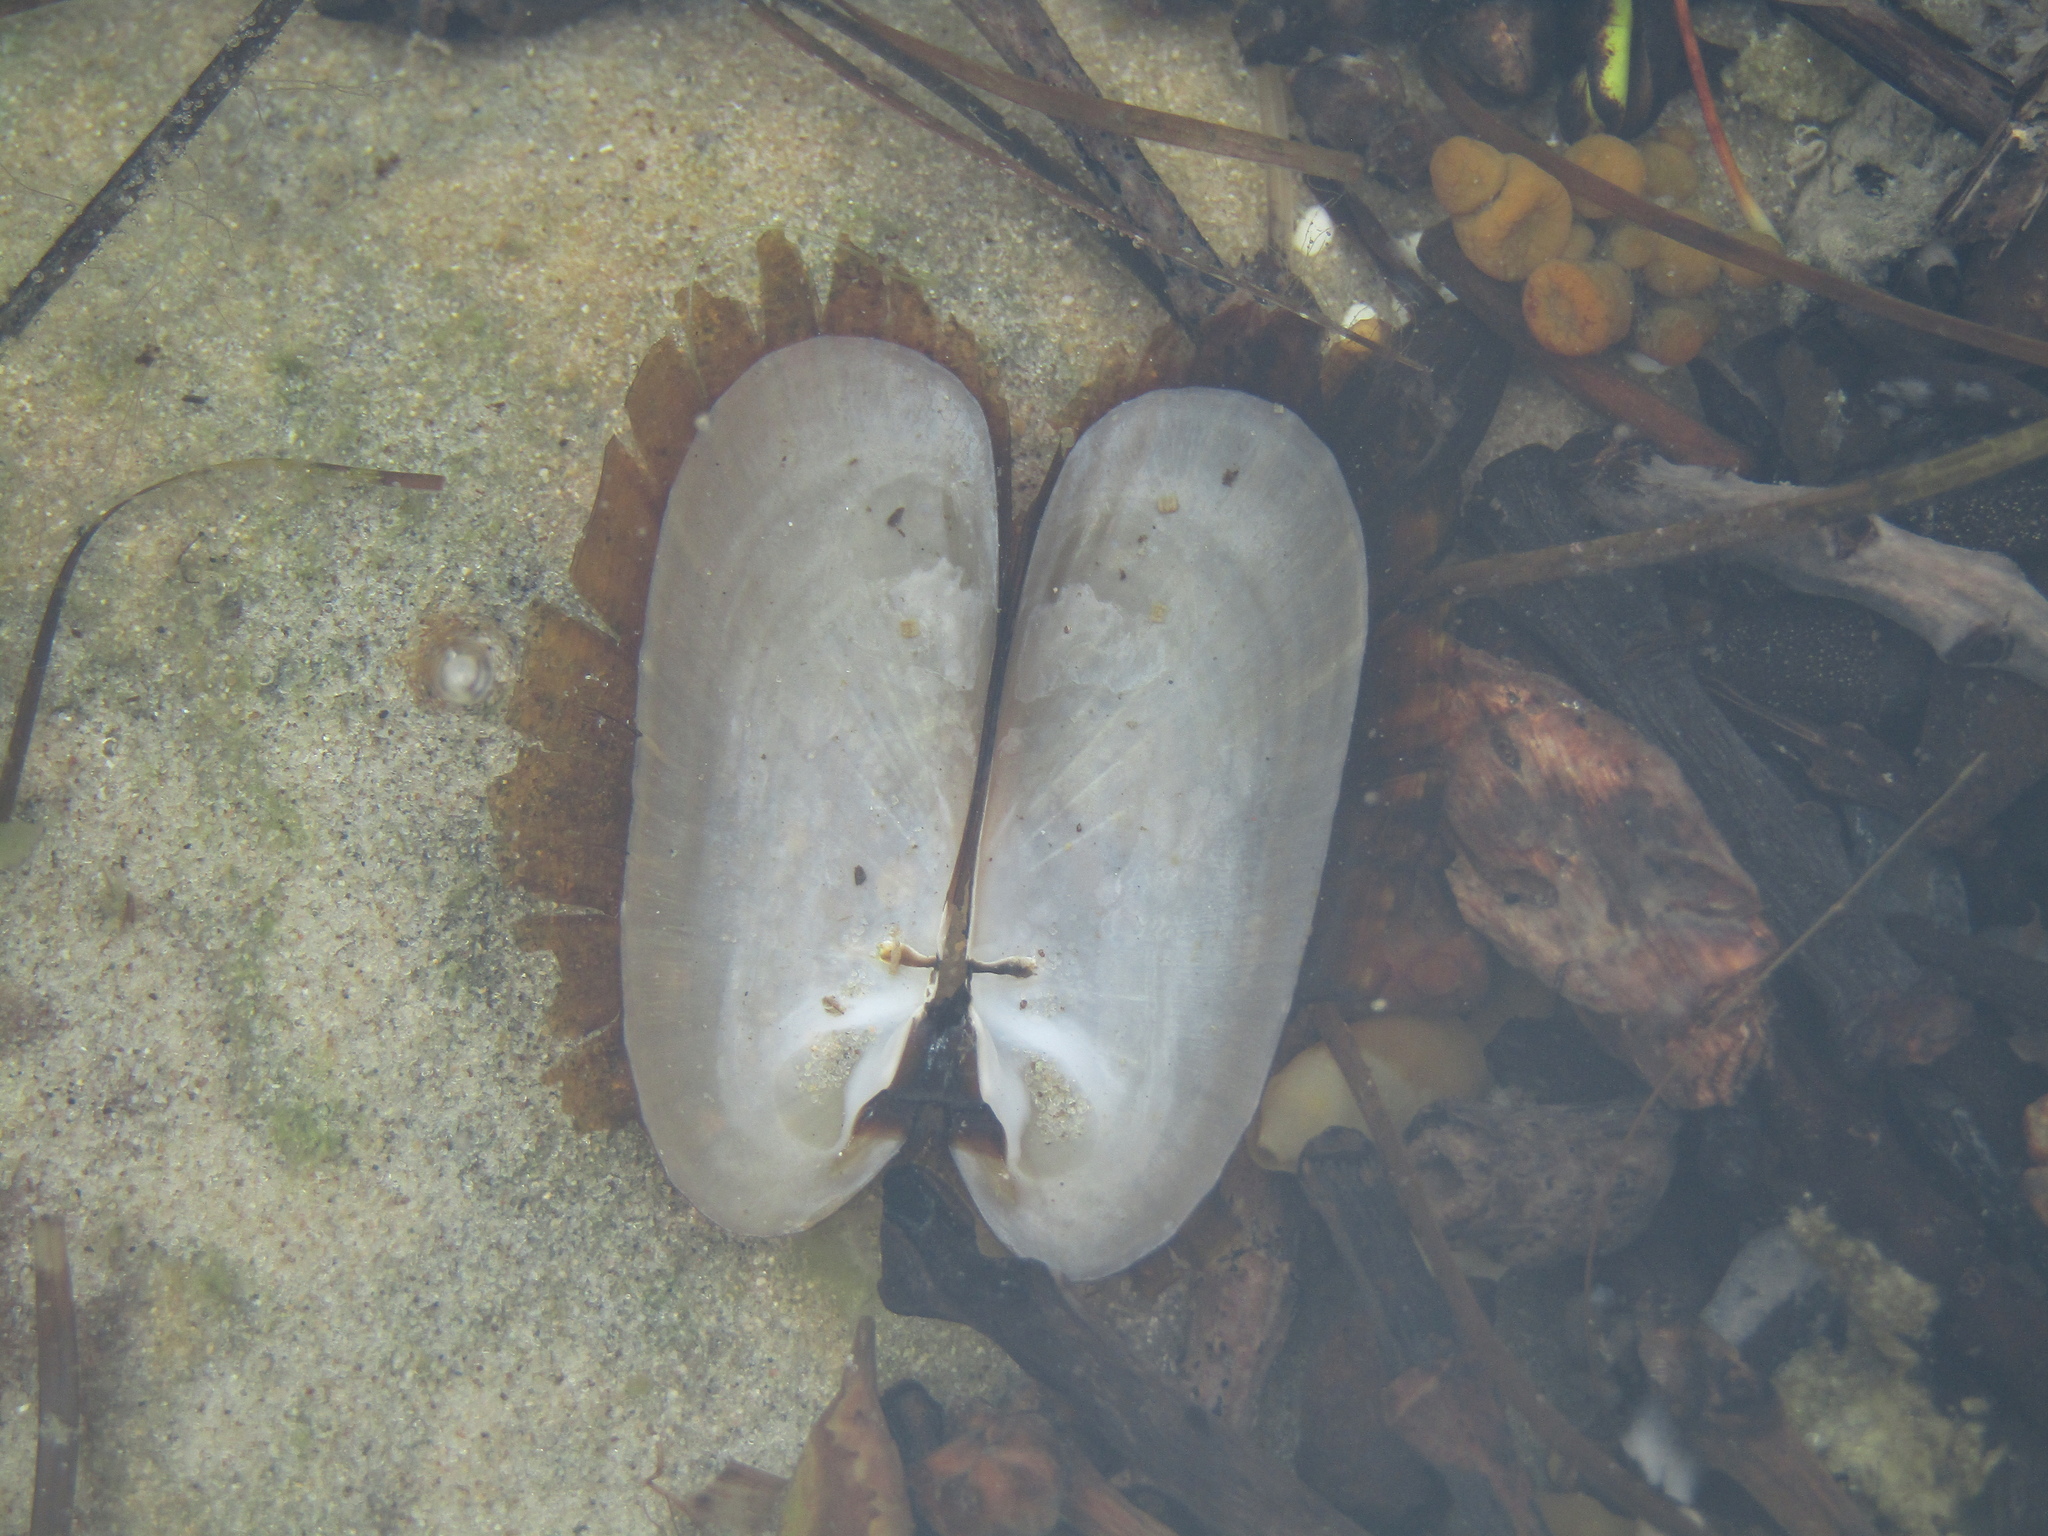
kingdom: Animalia
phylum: Mollusca
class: Bivalvia
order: Solemyida
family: Solemyidae
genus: Solemya
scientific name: Solemya parkinsonii
